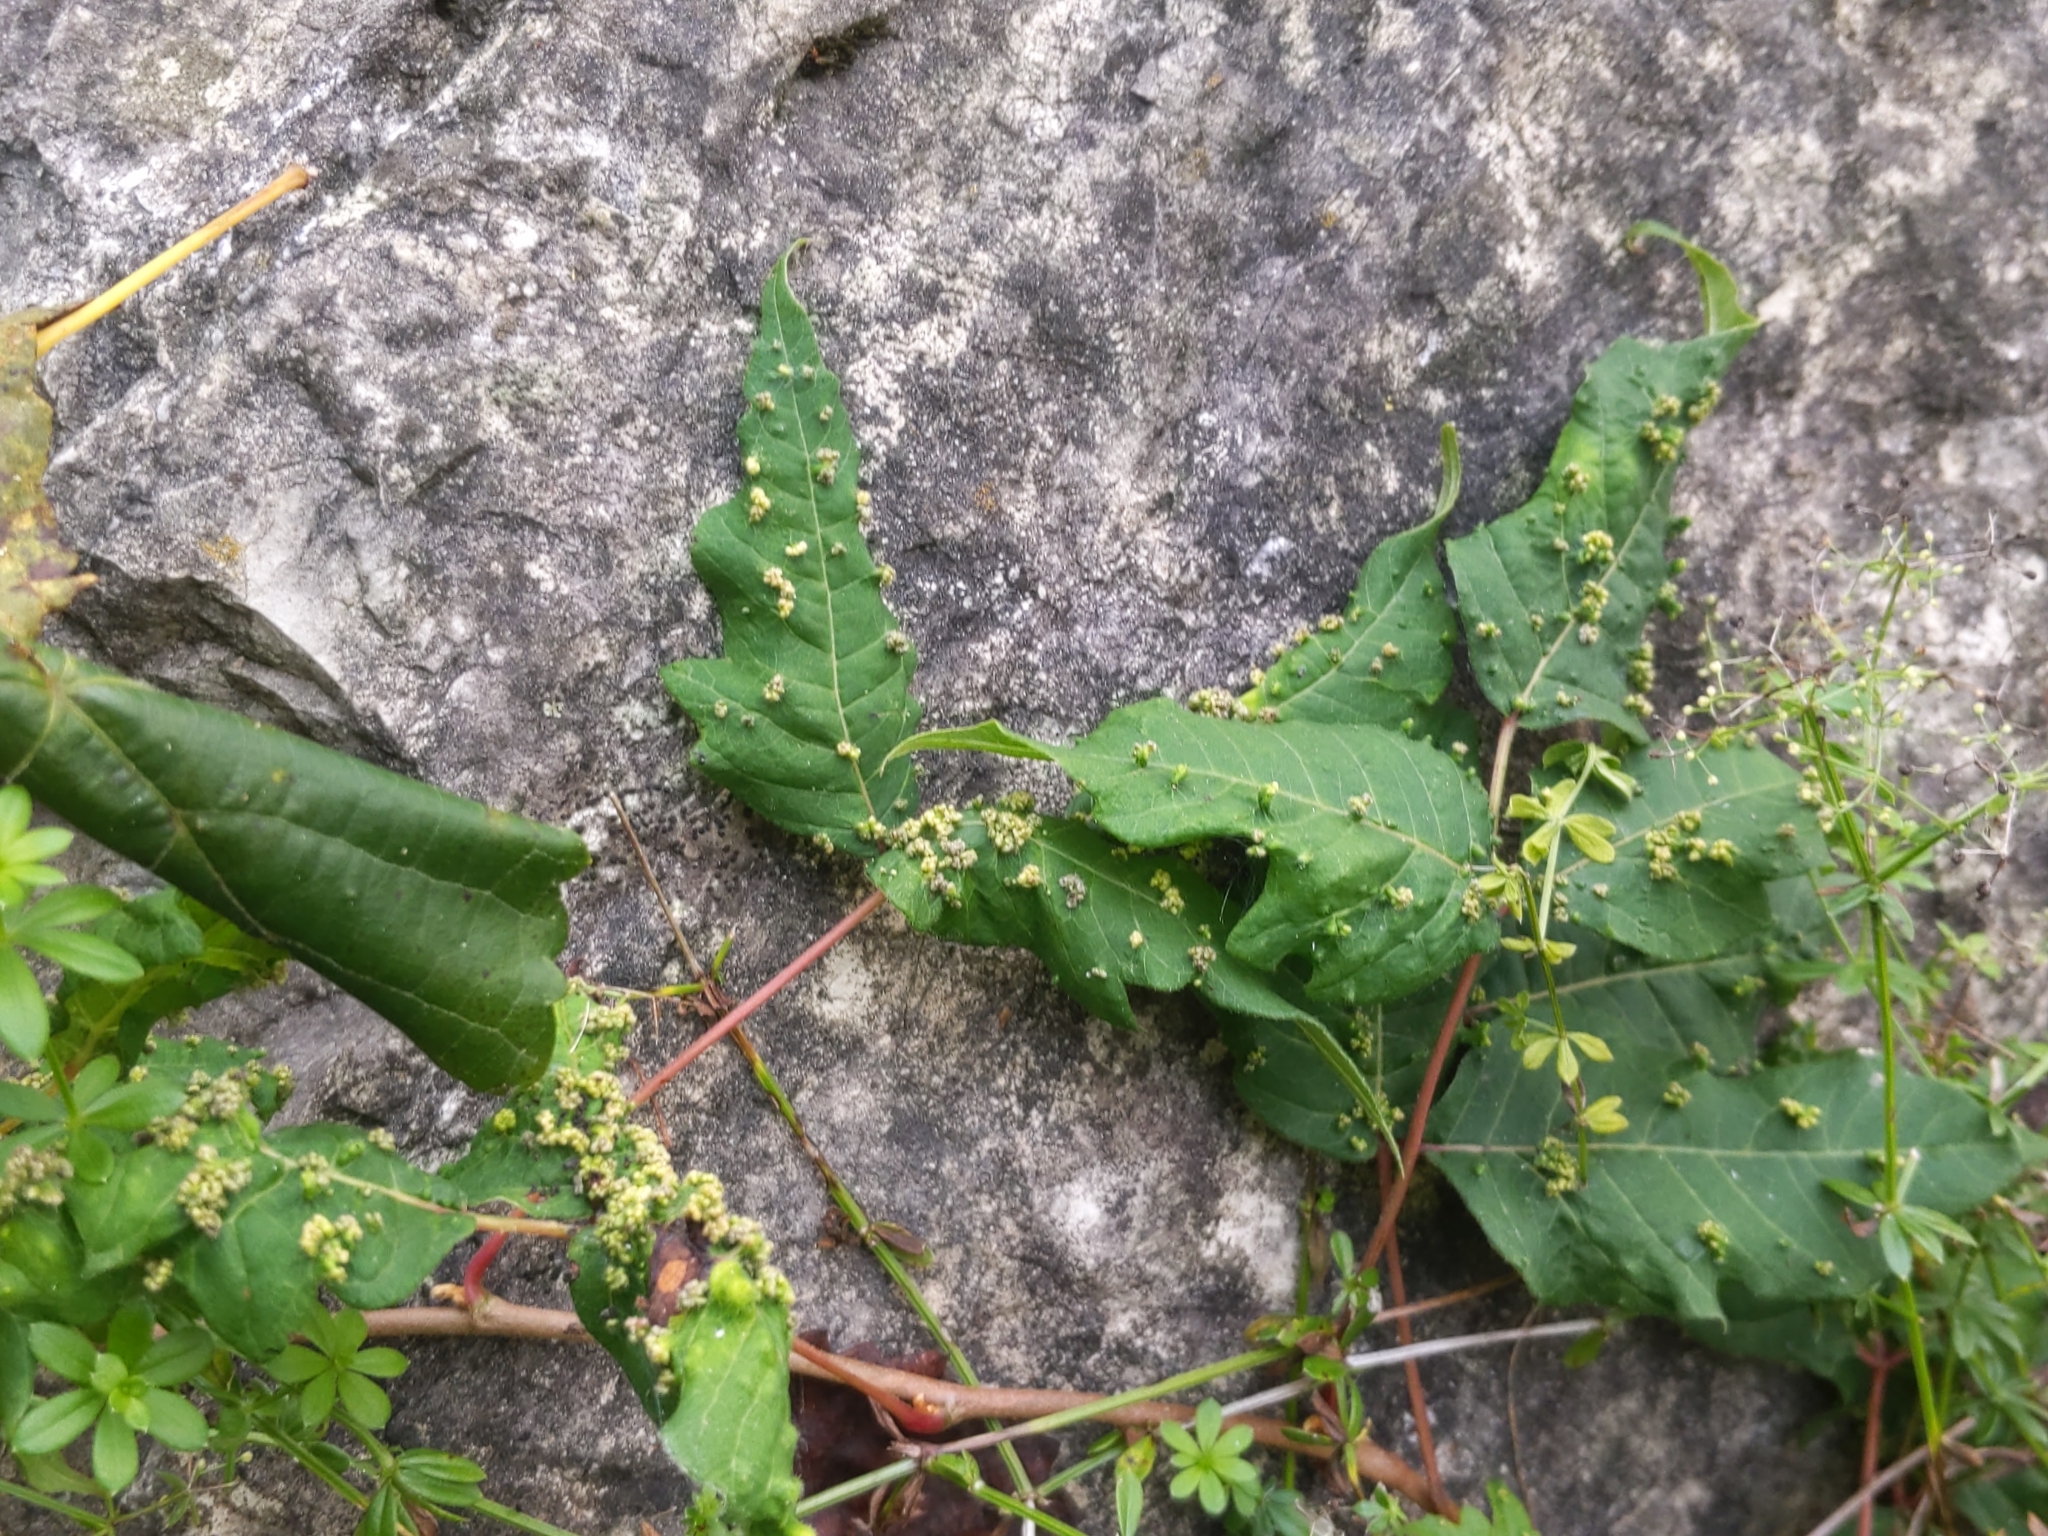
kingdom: Animalia
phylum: Arthropoda
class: Arachnida
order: Trombidiformes
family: Eriophyidae
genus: Aculops
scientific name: Aculops
